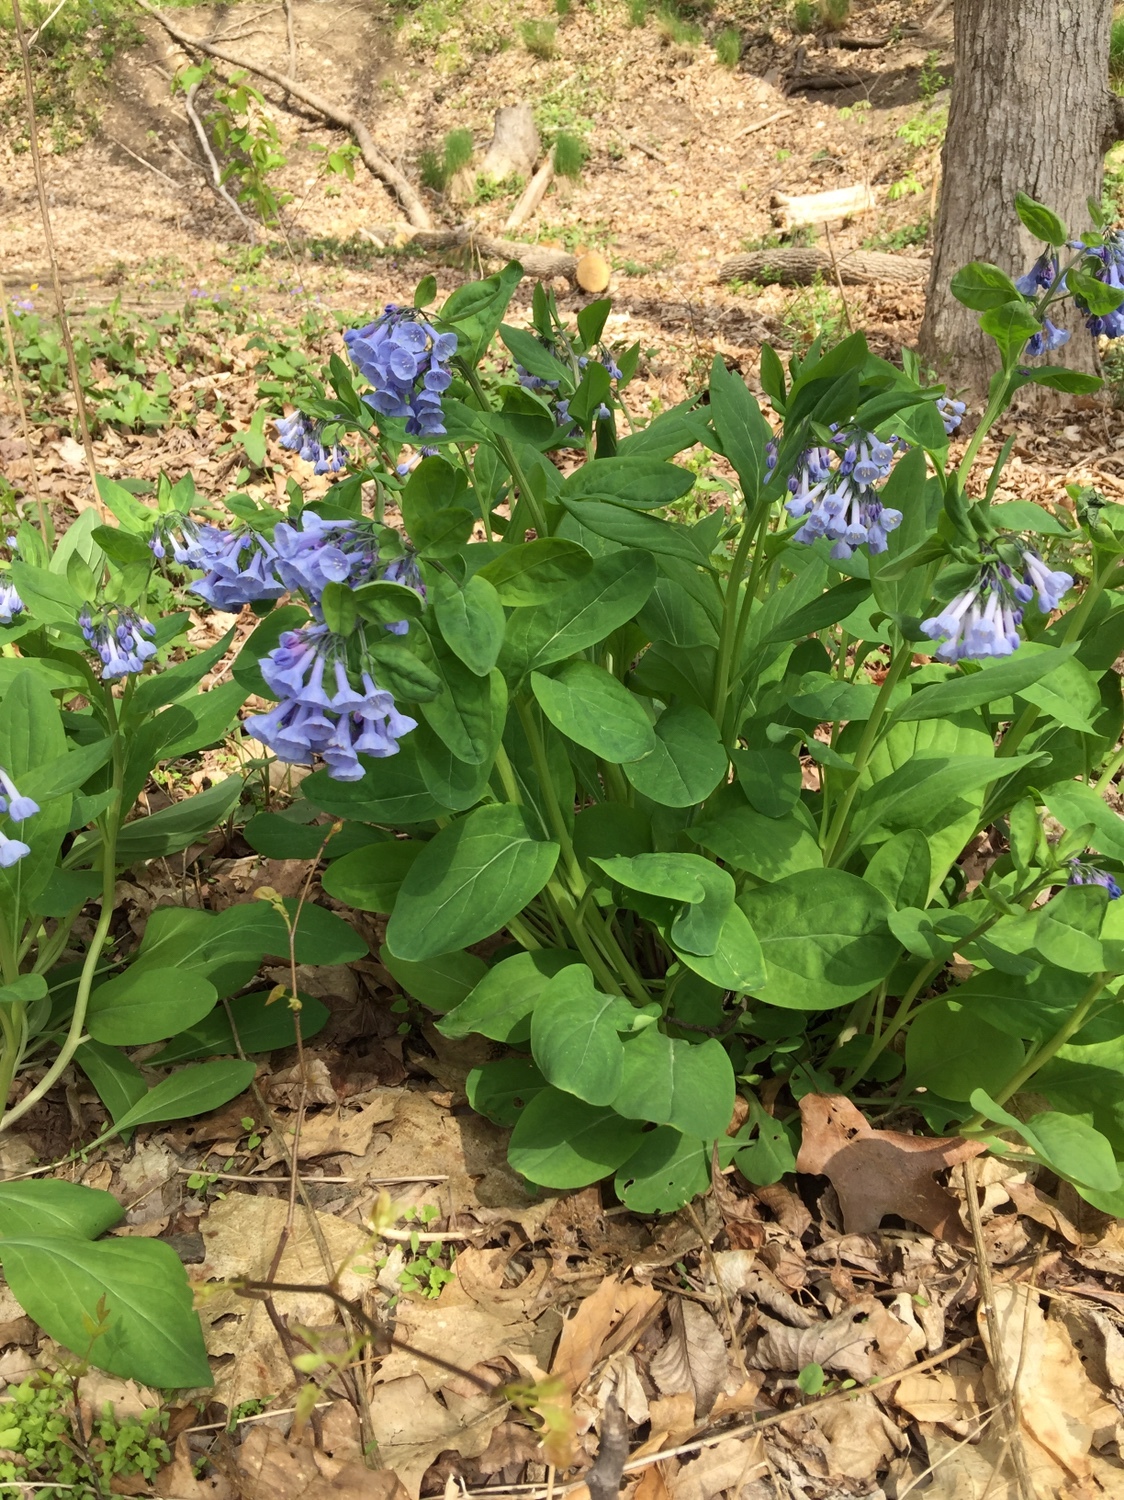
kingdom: Plantae
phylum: Tracheophyta
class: Magnoliopsida
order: Boraginales
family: Boraginaceae
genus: Mertensia
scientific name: Mertensia virginica
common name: Virginia bluebells
